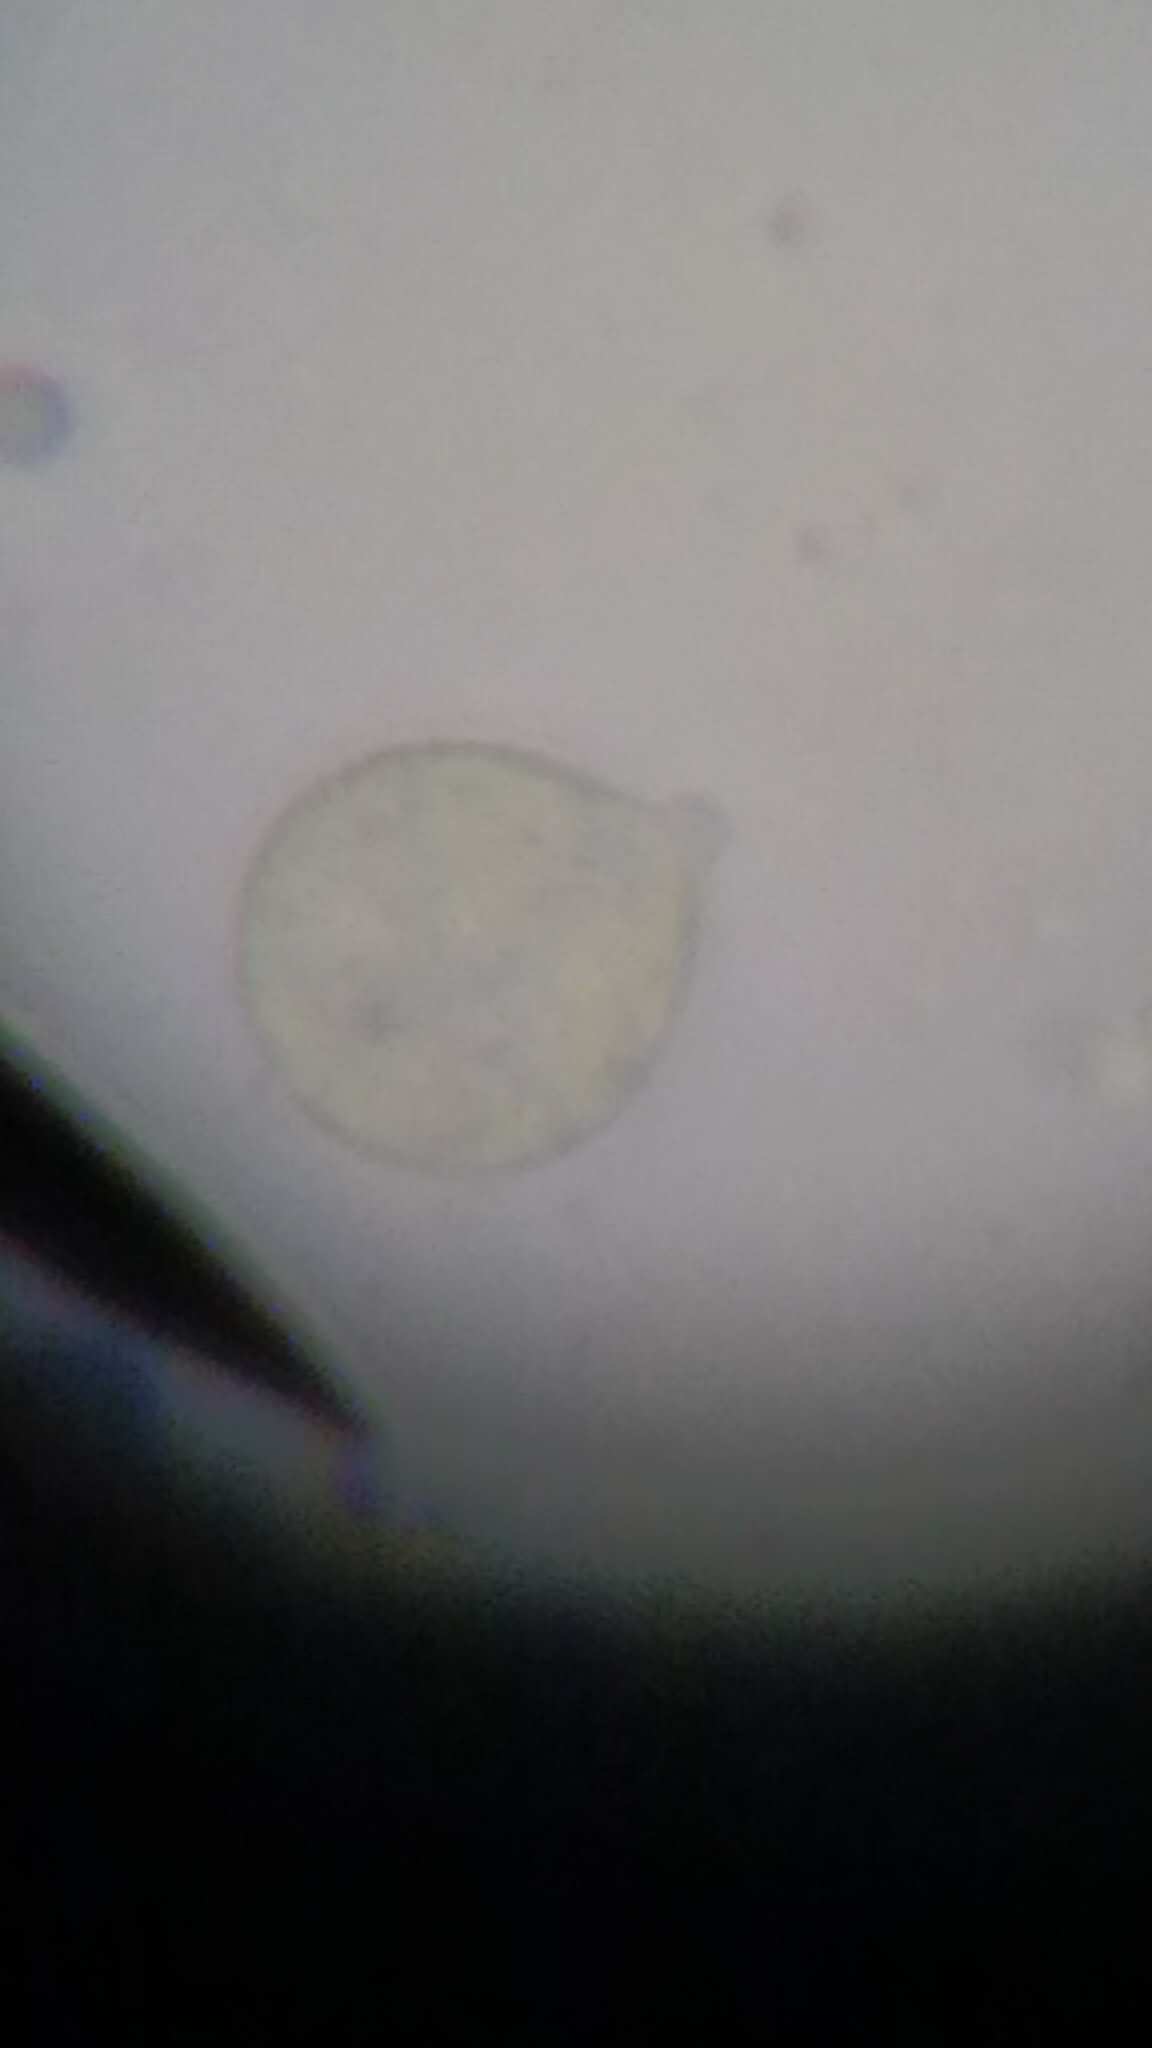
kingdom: Fungi
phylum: Basidiomycota
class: Agaricomycetes
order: Agaricales
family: Amanitaceae
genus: Amanita
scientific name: Amanita lavendula
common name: Coker's lavender staining amanita
